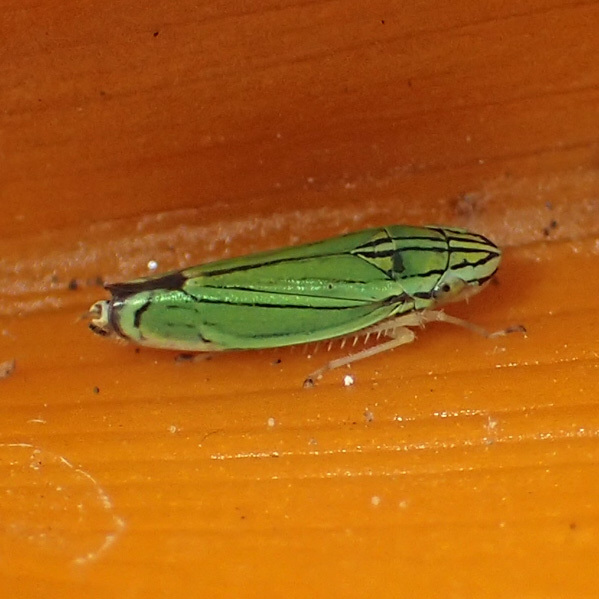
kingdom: Animalia
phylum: Arthropoda
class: Insecta
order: Hemiptera
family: Cicadellidae
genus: Isogonalia
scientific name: Isogonalia sexlineata
